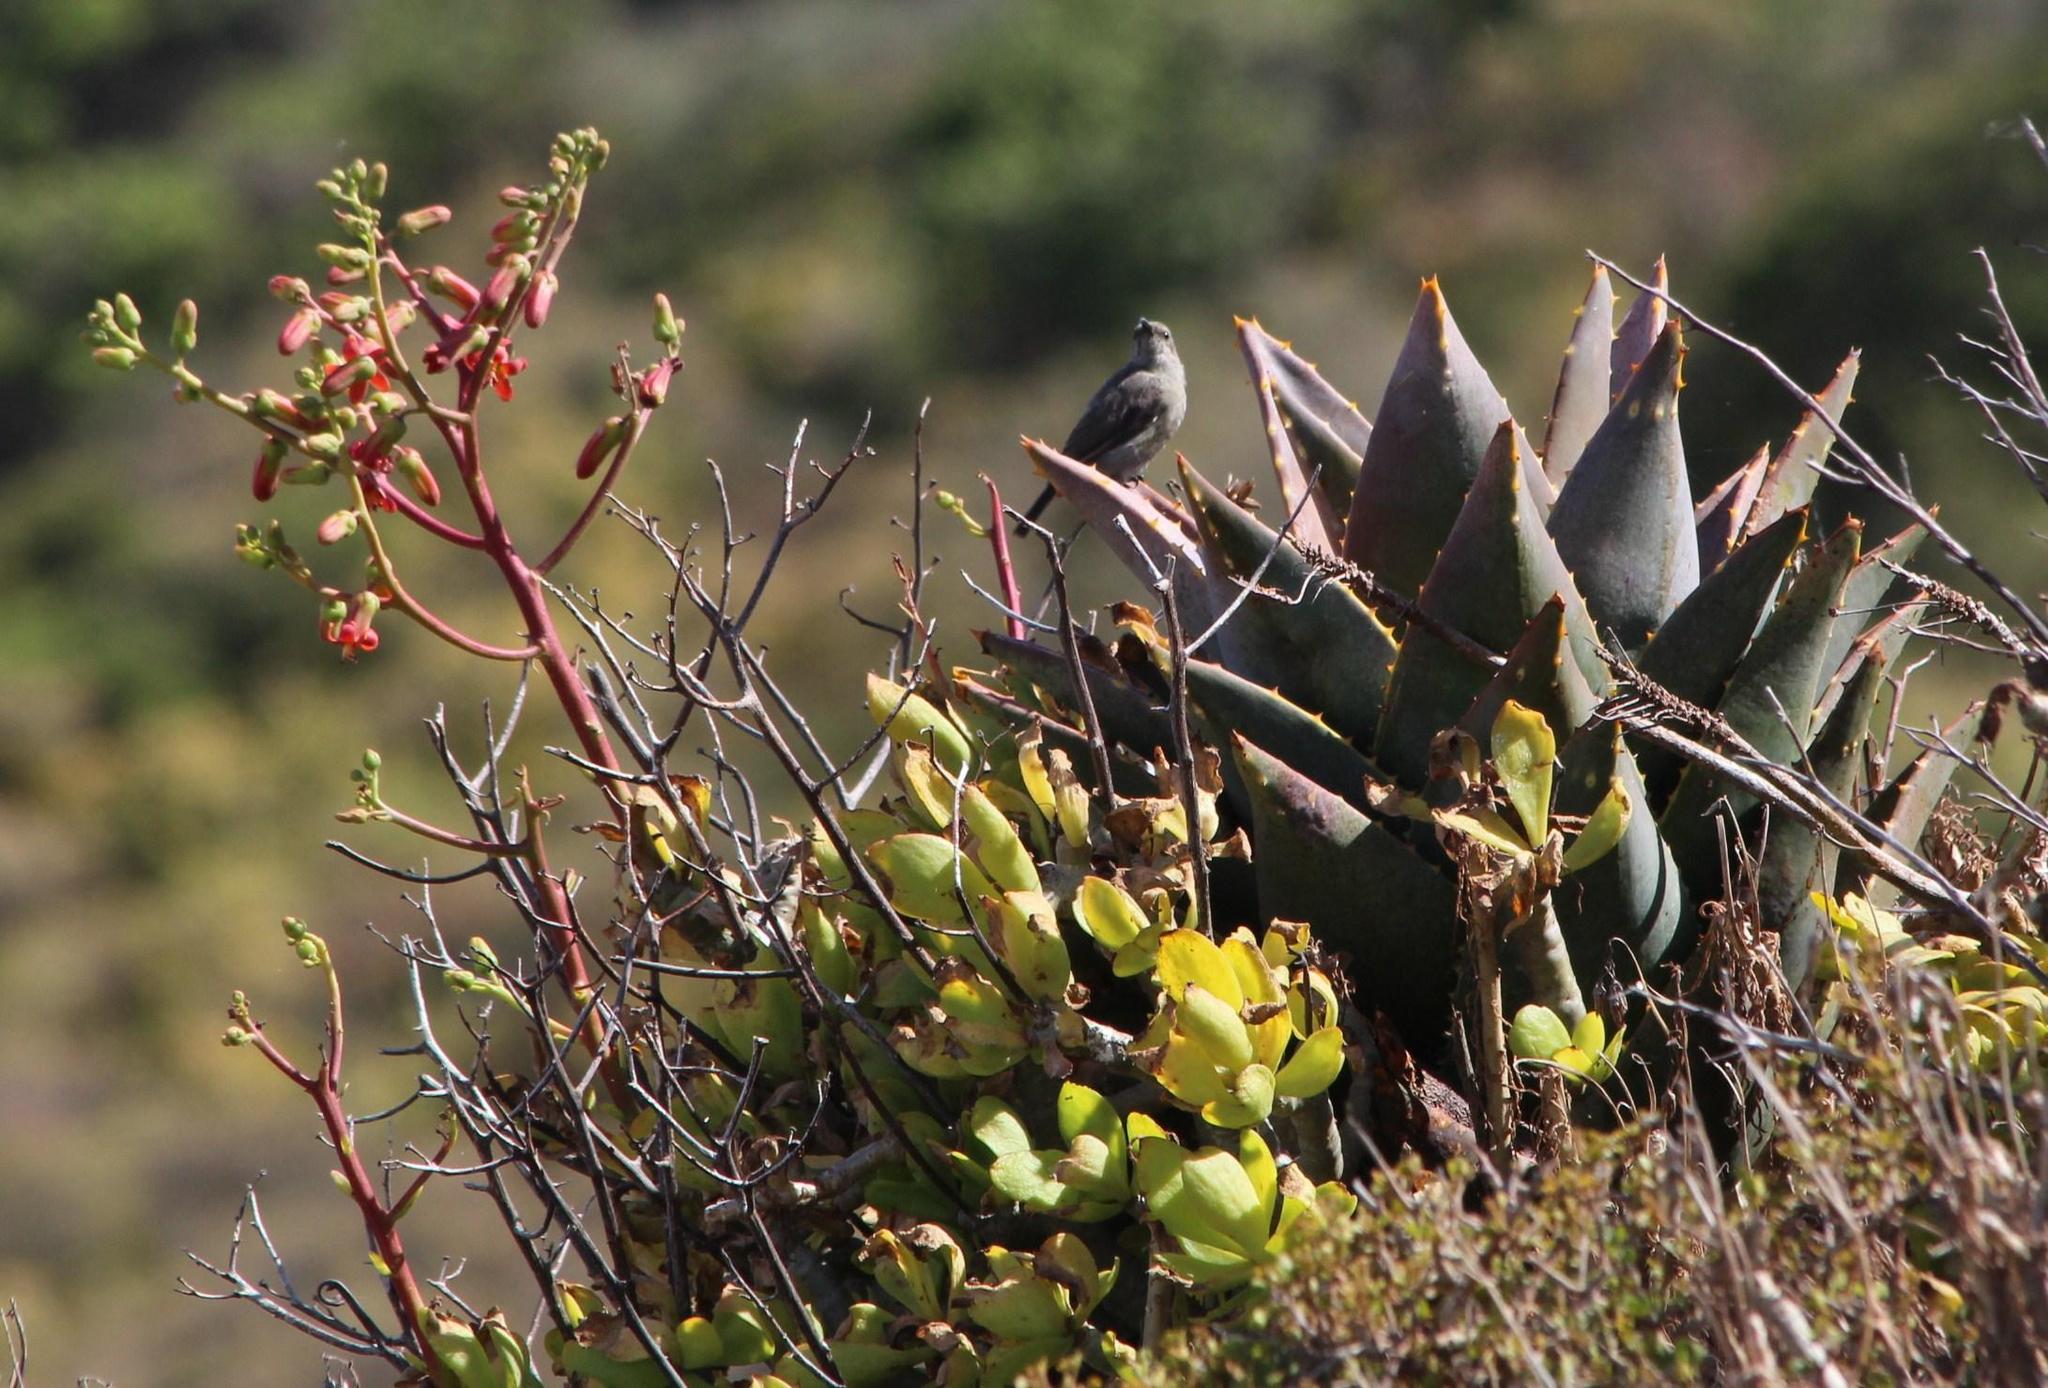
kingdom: Animalia
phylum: Chordata
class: Aves
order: Passeriformes
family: Nectariniidae
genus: Cinnyris
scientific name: Cinnyris chalybeus
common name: Southern double-collared sunbird
